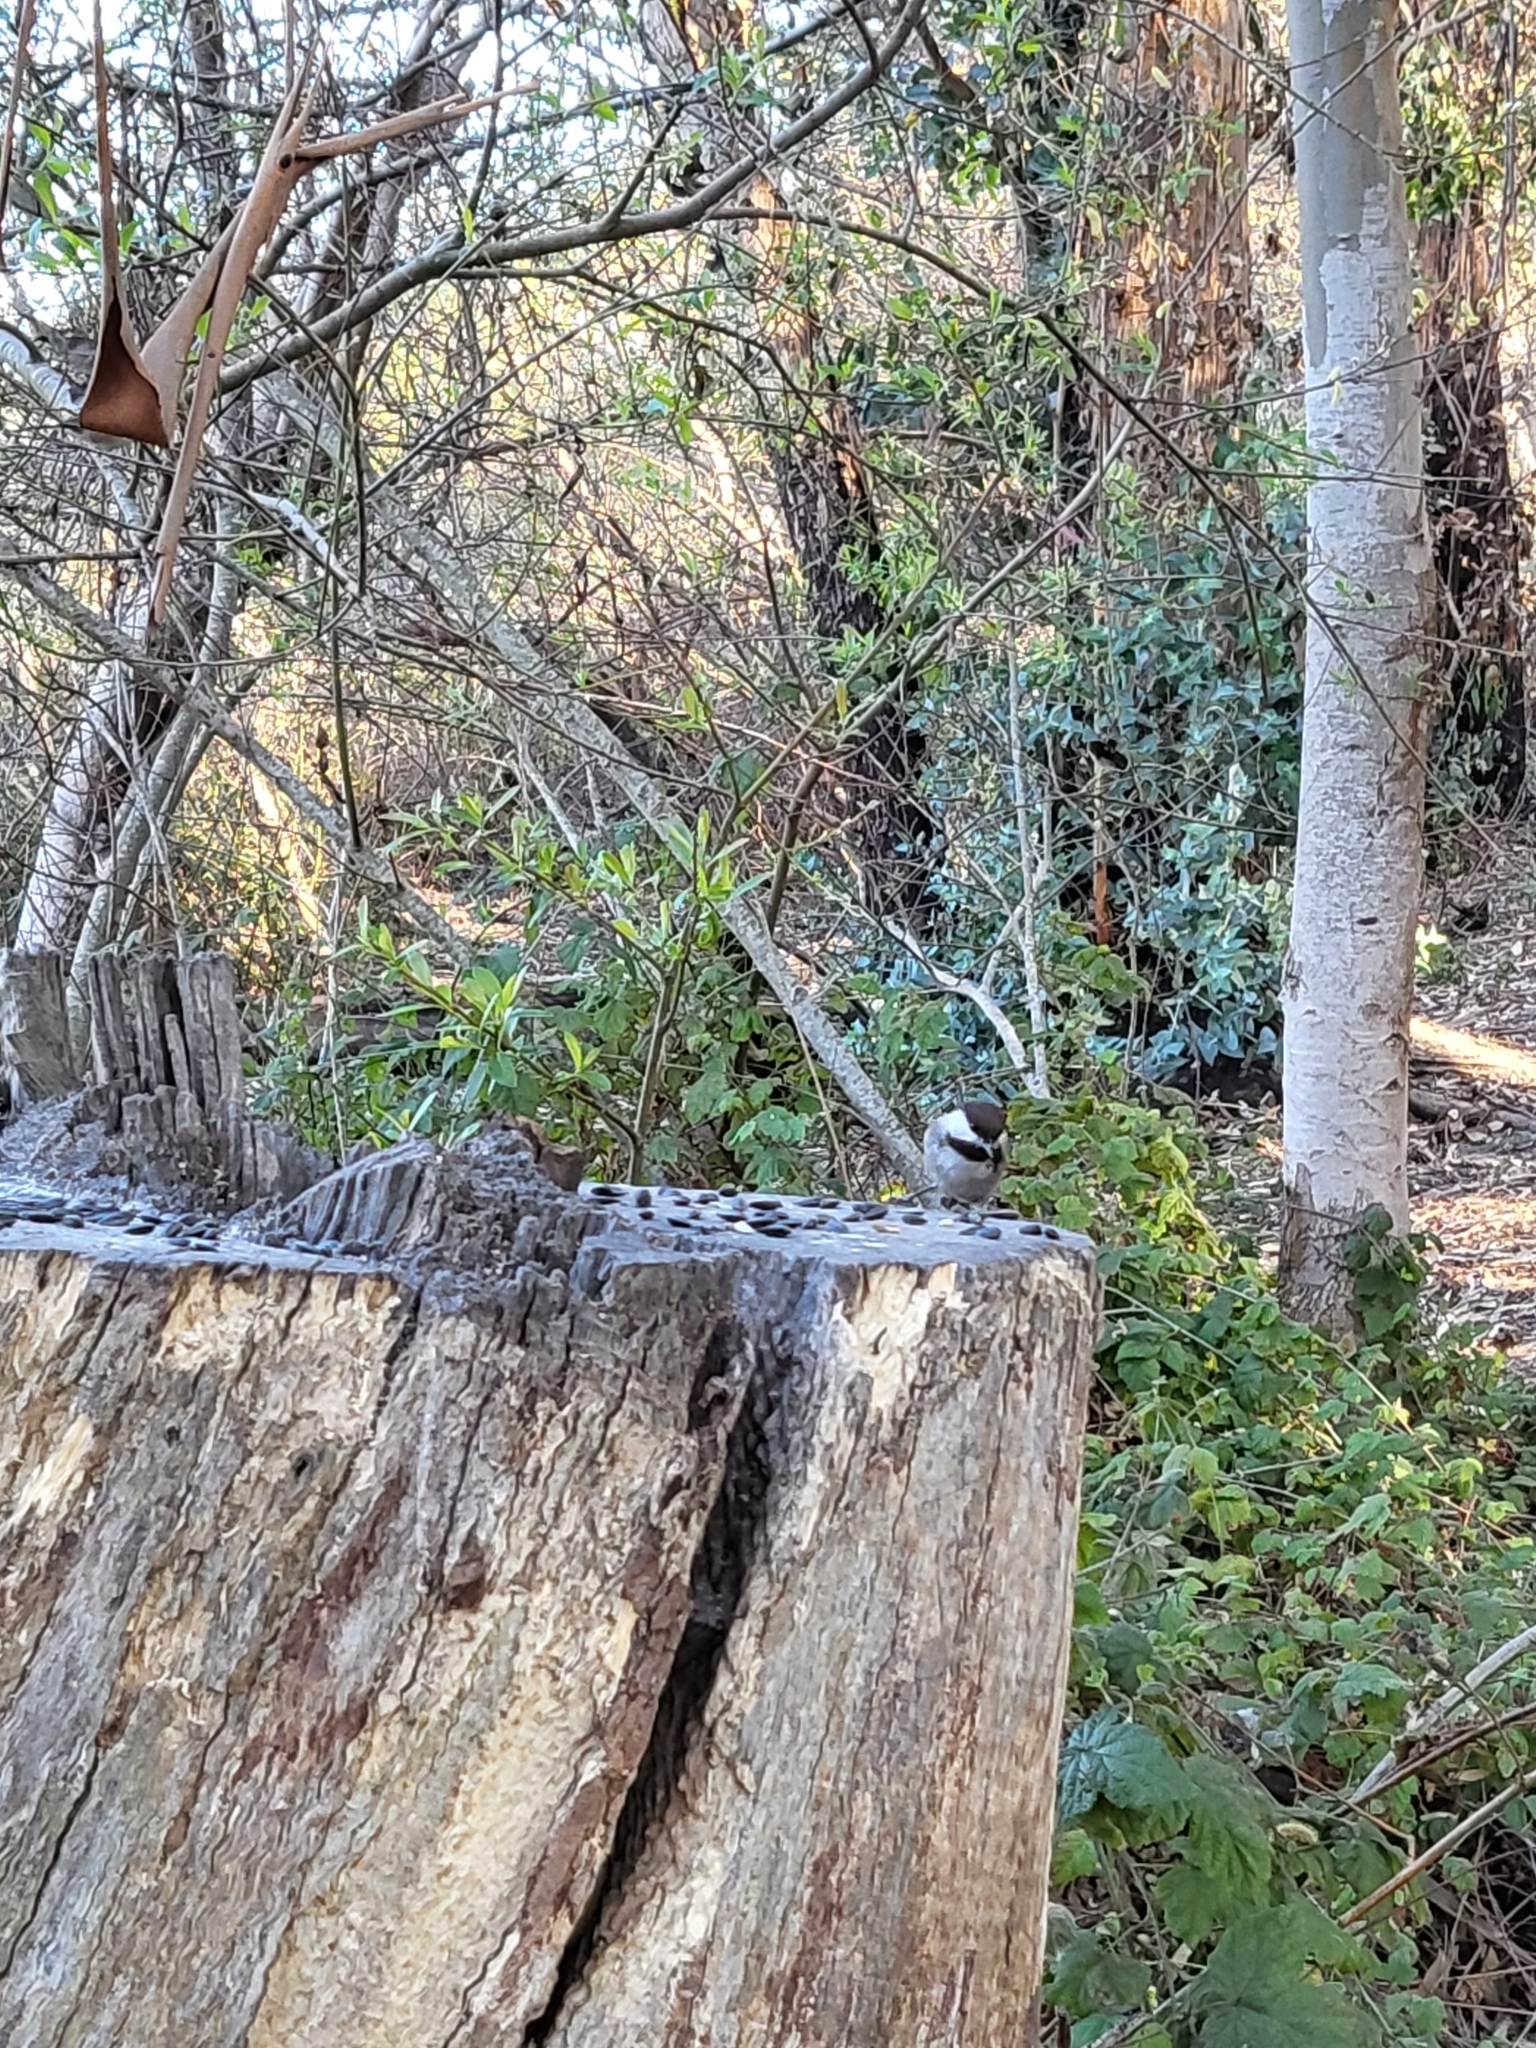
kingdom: Animalia
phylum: Chordata
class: Aves
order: Passeriformes
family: Paridae
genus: Poecile
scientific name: Poecile rufescens
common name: Chestnut-backed chickadee
